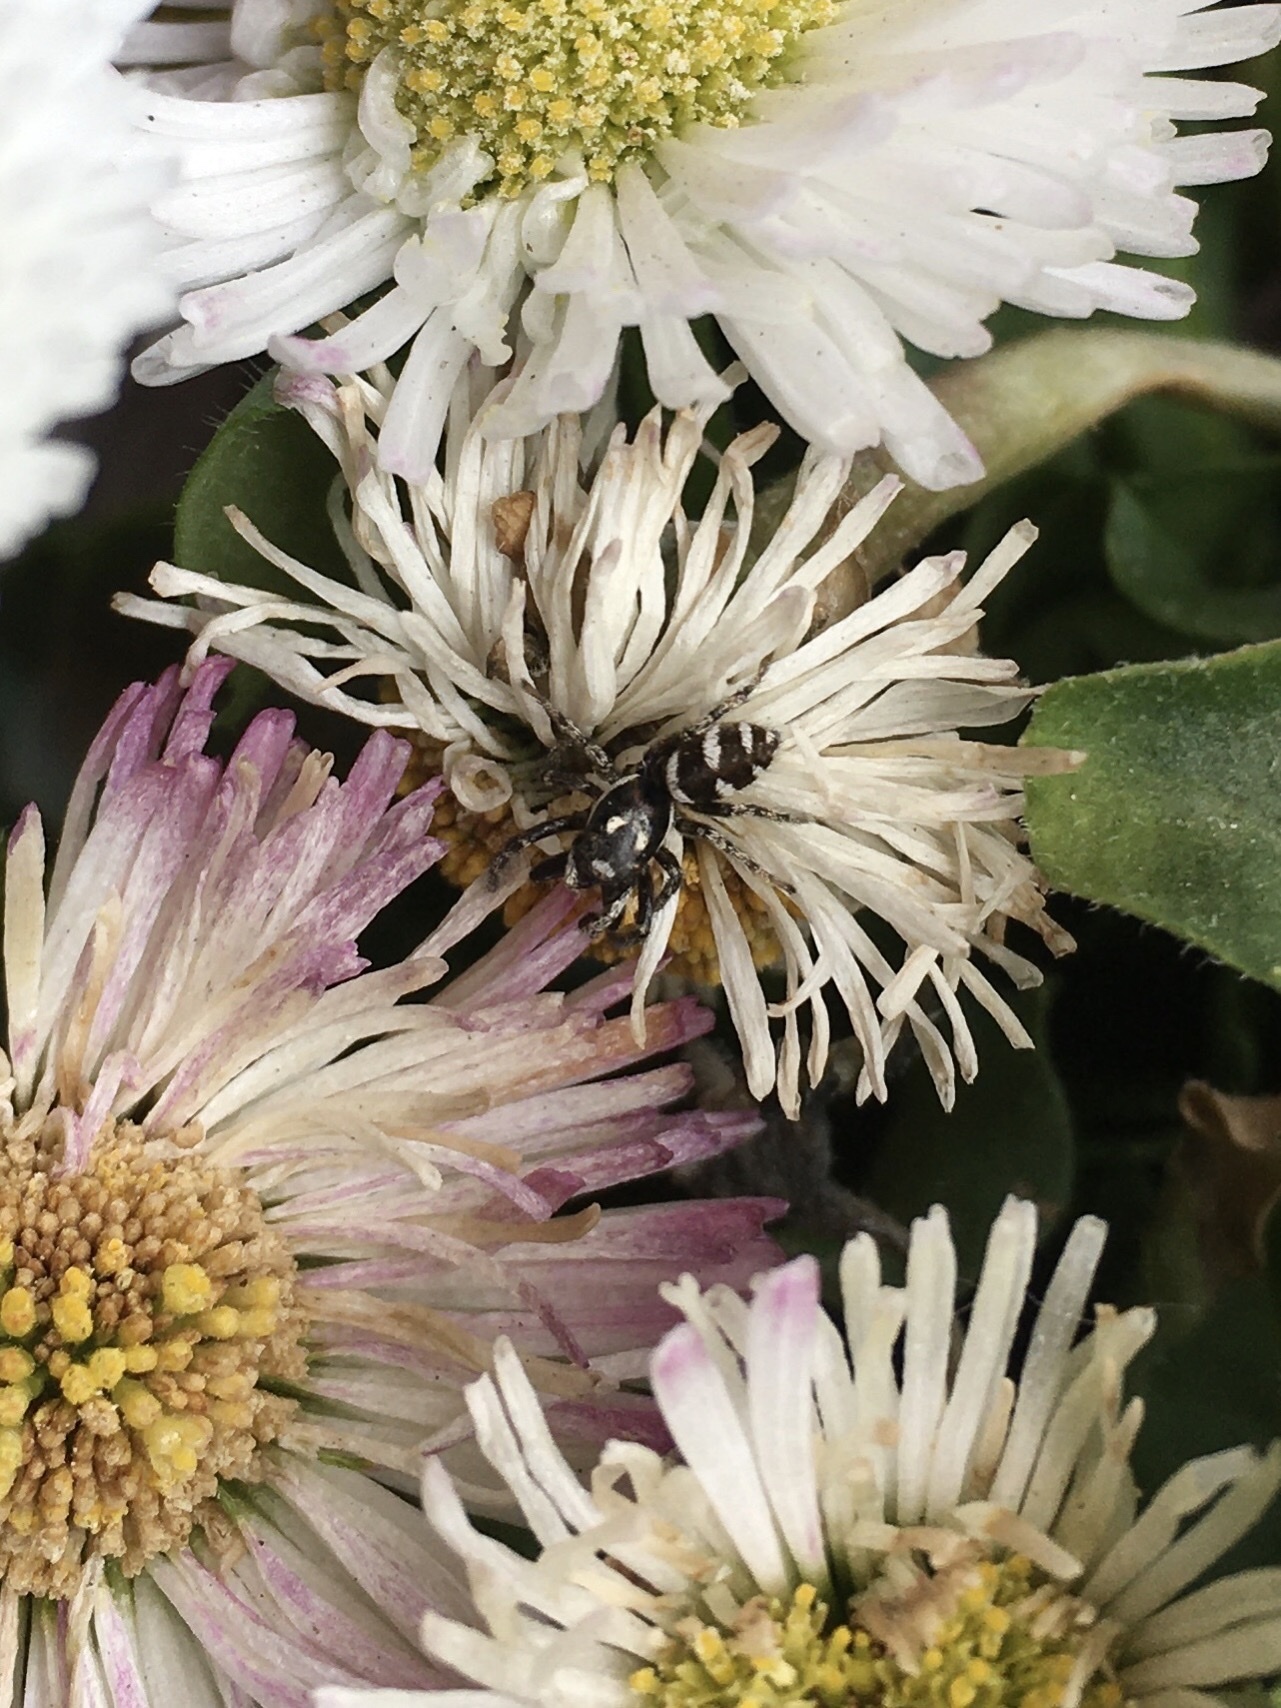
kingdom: Animalia
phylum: Arthropoda
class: Arachnida
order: Araneae
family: Salticidae
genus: Salticus
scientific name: Salticus scenicus
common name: Zebra jumper
